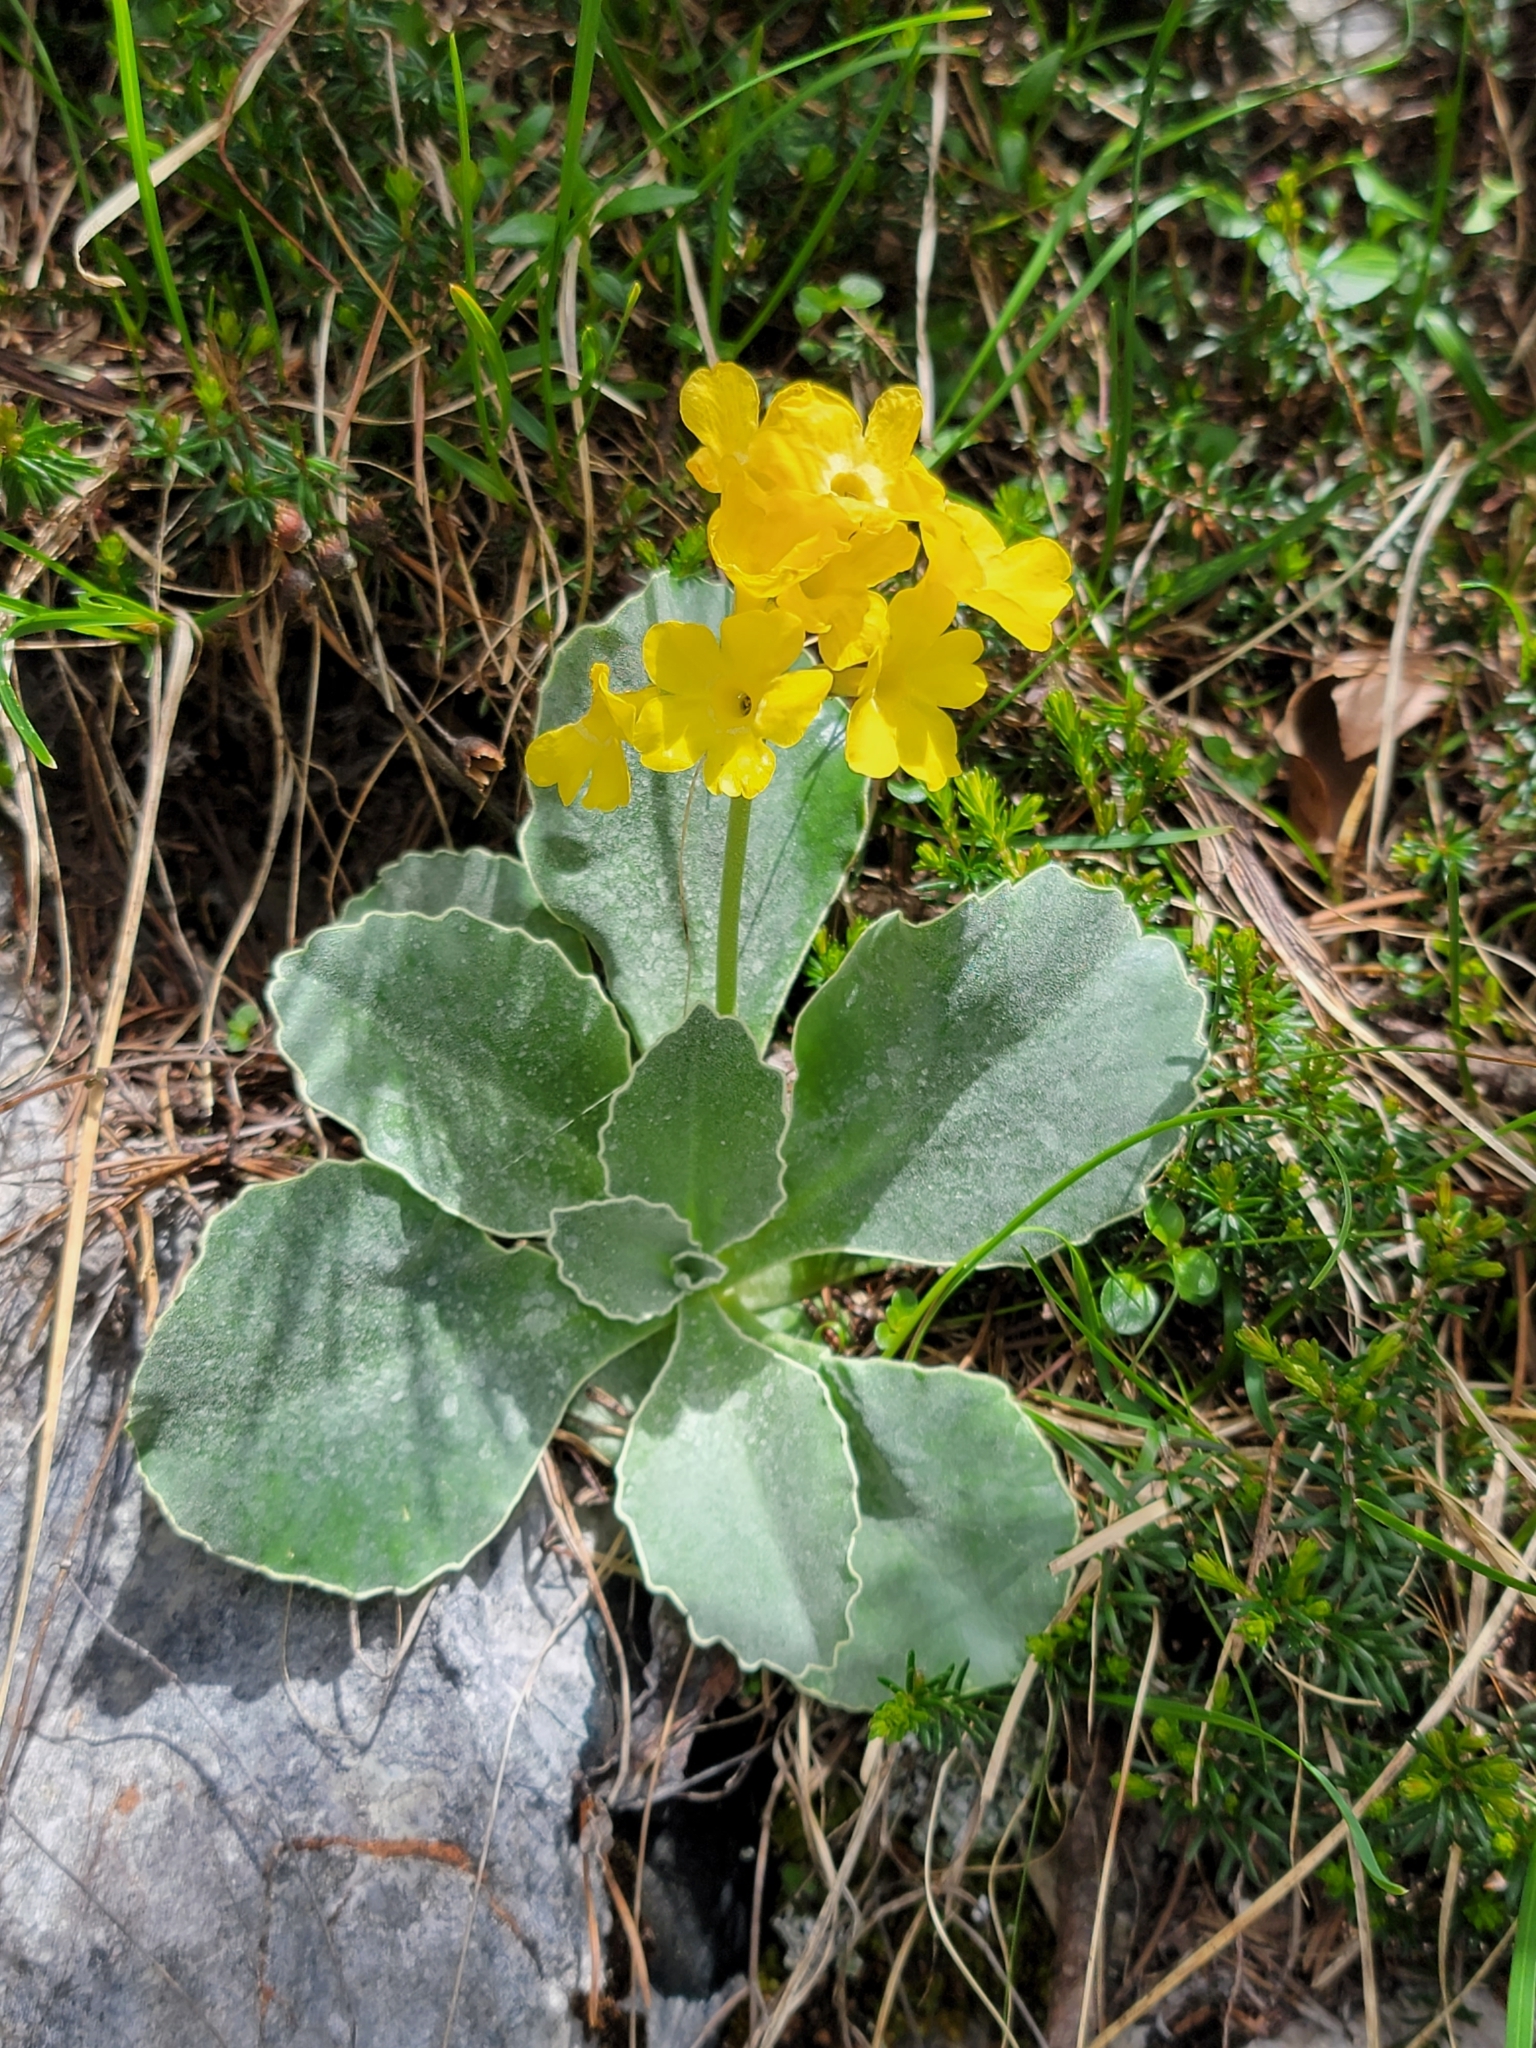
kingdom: Plantae
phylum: Tracheophyta
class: Magnoliopsida
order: Ericales
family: Primulaceae
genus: Primula
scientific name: Primula auricula
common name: Auricula
